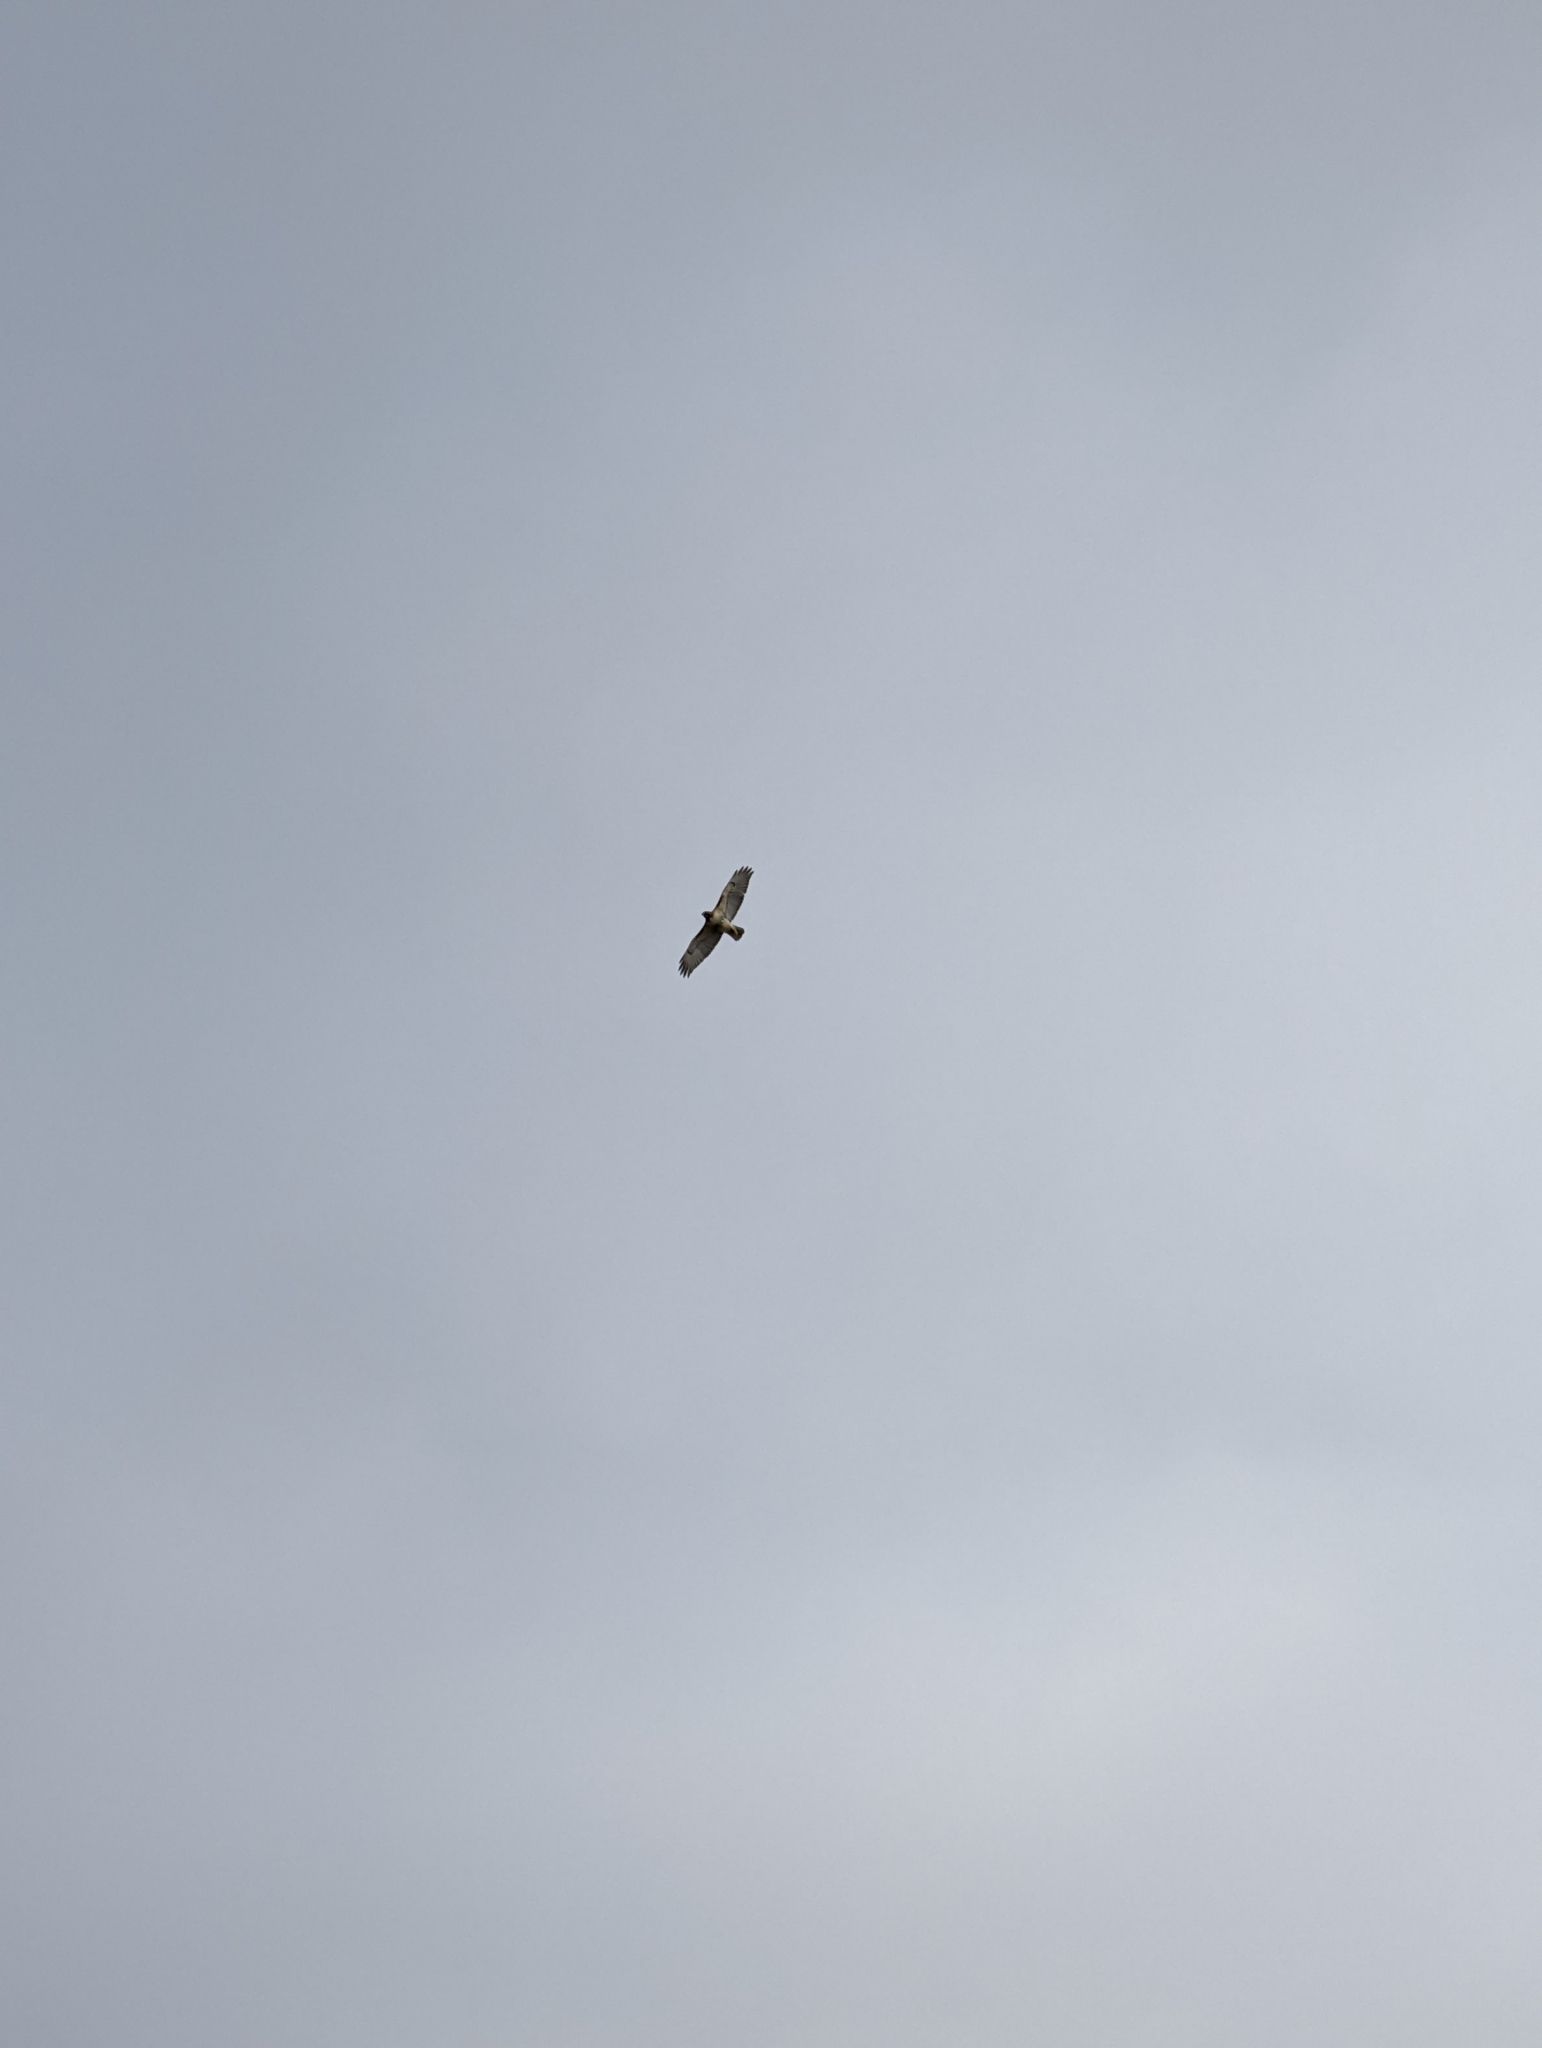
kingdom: Animalia
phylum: Chordata
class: Aves
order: Accipitriformes
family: Accipitridae
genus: Buteo
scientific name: Buteo jamaicensis
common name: Red-tailed hawk
